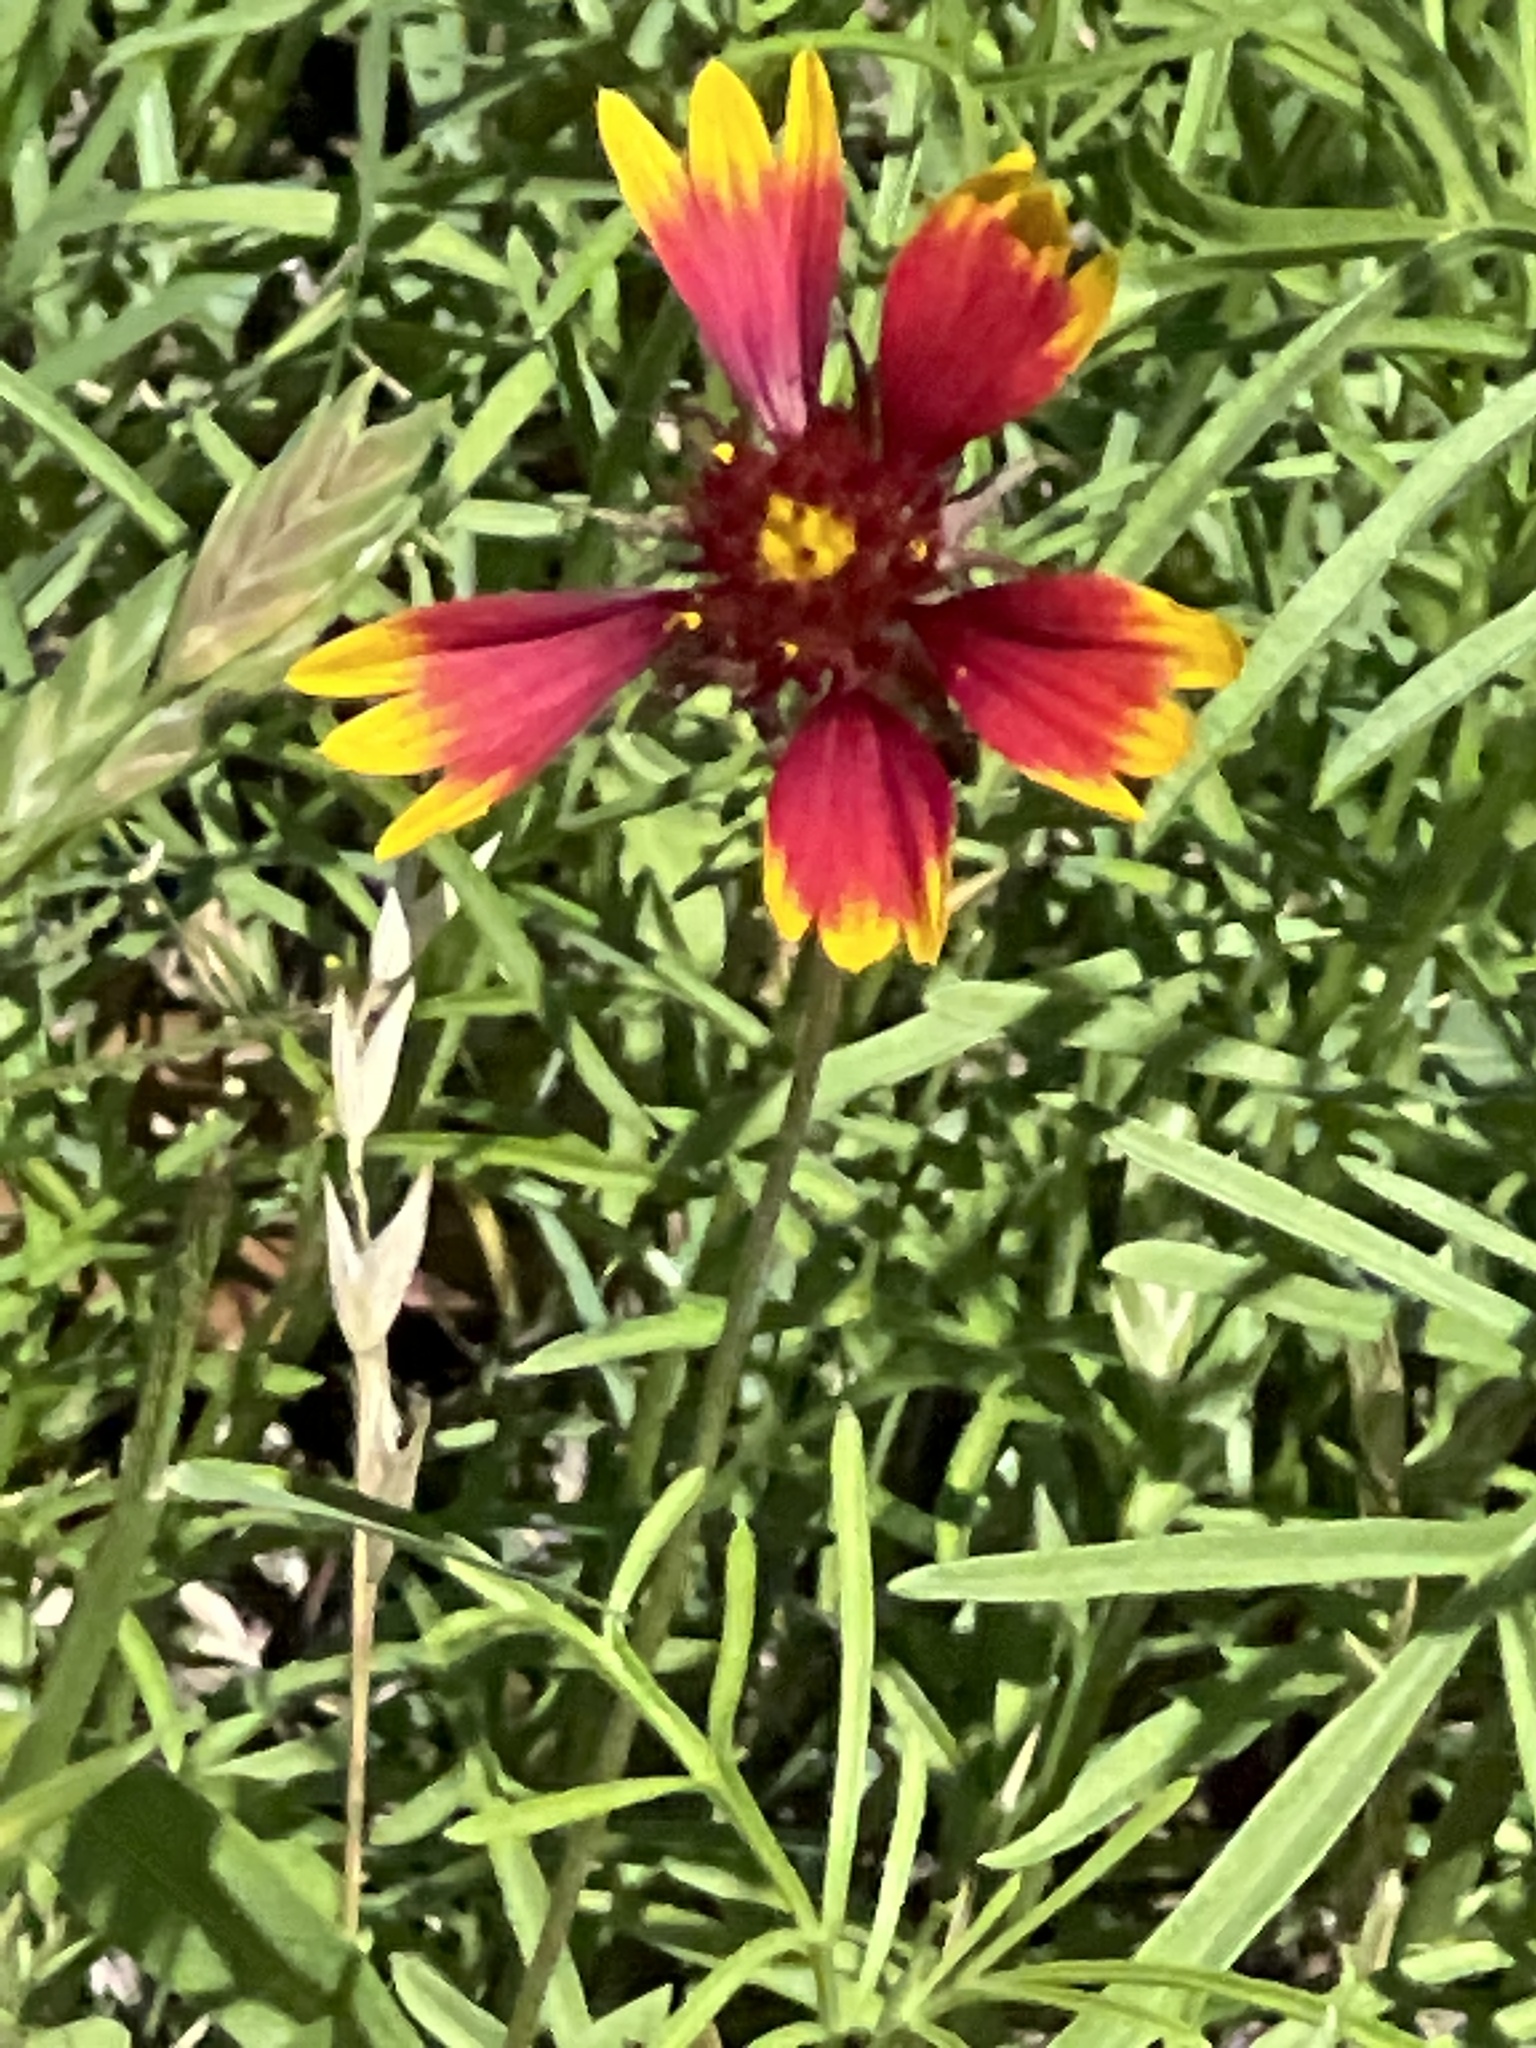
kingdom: Plantae
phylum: Tracheophyta
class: Magnoliopsida
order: Asterales
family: Asteraceae
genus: Gaillardia
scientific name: Gaillardia pulchella
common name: Firewheel
